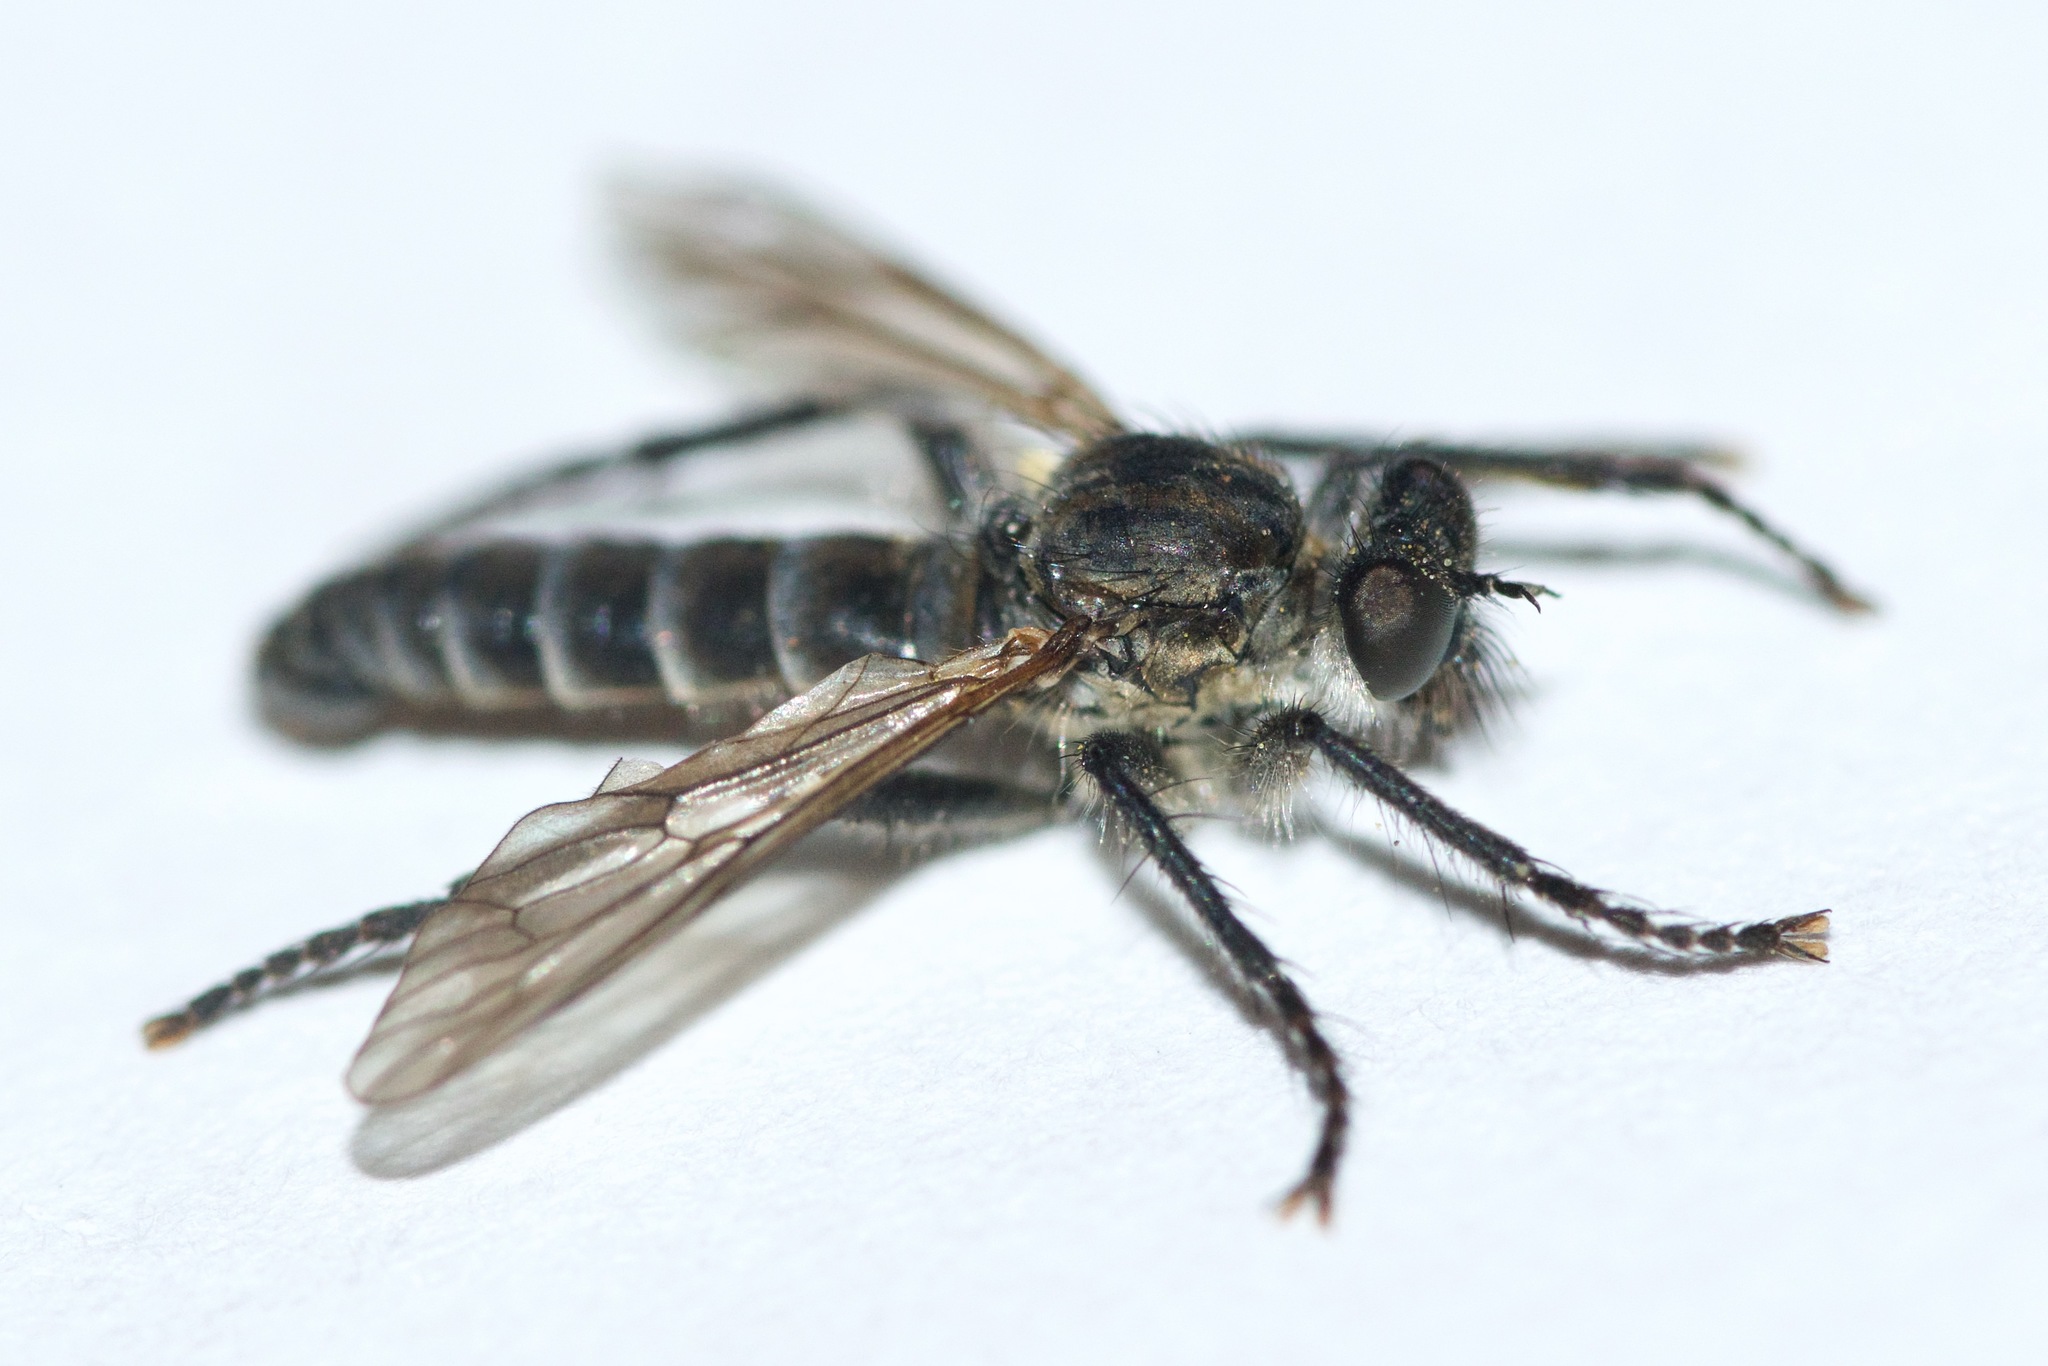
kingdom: Animalia
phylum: Arthropoda
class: Insecta
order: Diptera
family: Asilidae
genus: Lasiopogon
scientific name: Lasiopogon opaculus
